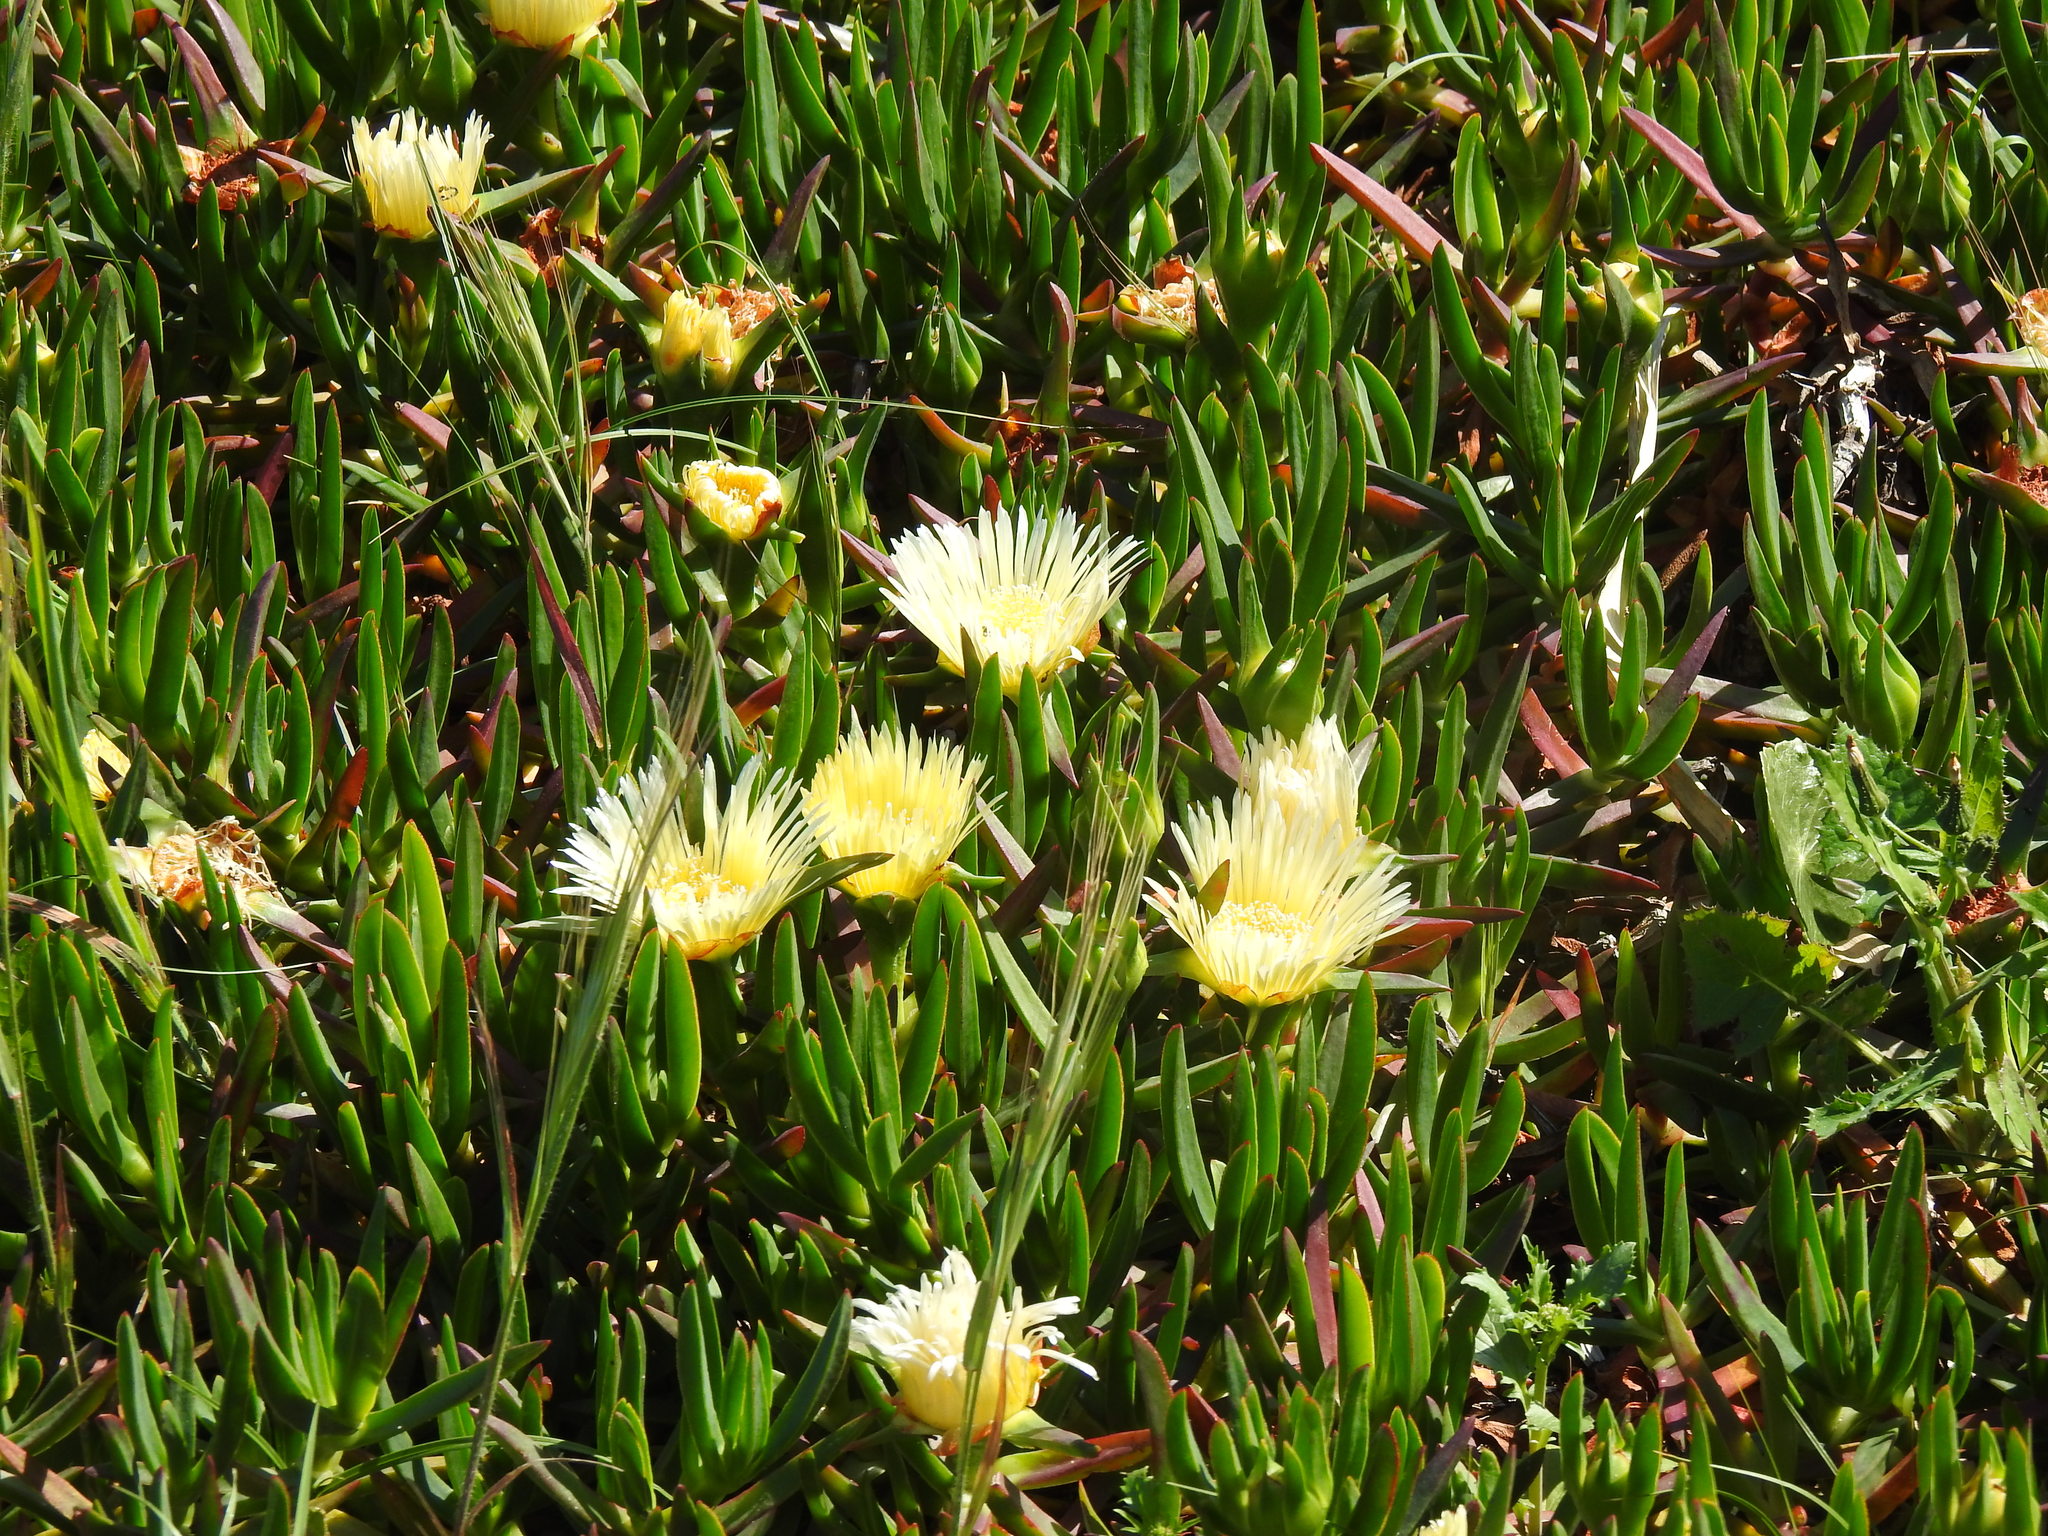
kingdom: Plantae
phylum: Tracheophyta
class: Magnoliopsida
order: Caryophyllales
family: Aizoaceae
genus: Carpobrotus
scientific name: Carpobrotus edulis
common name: Hottentot-fig
